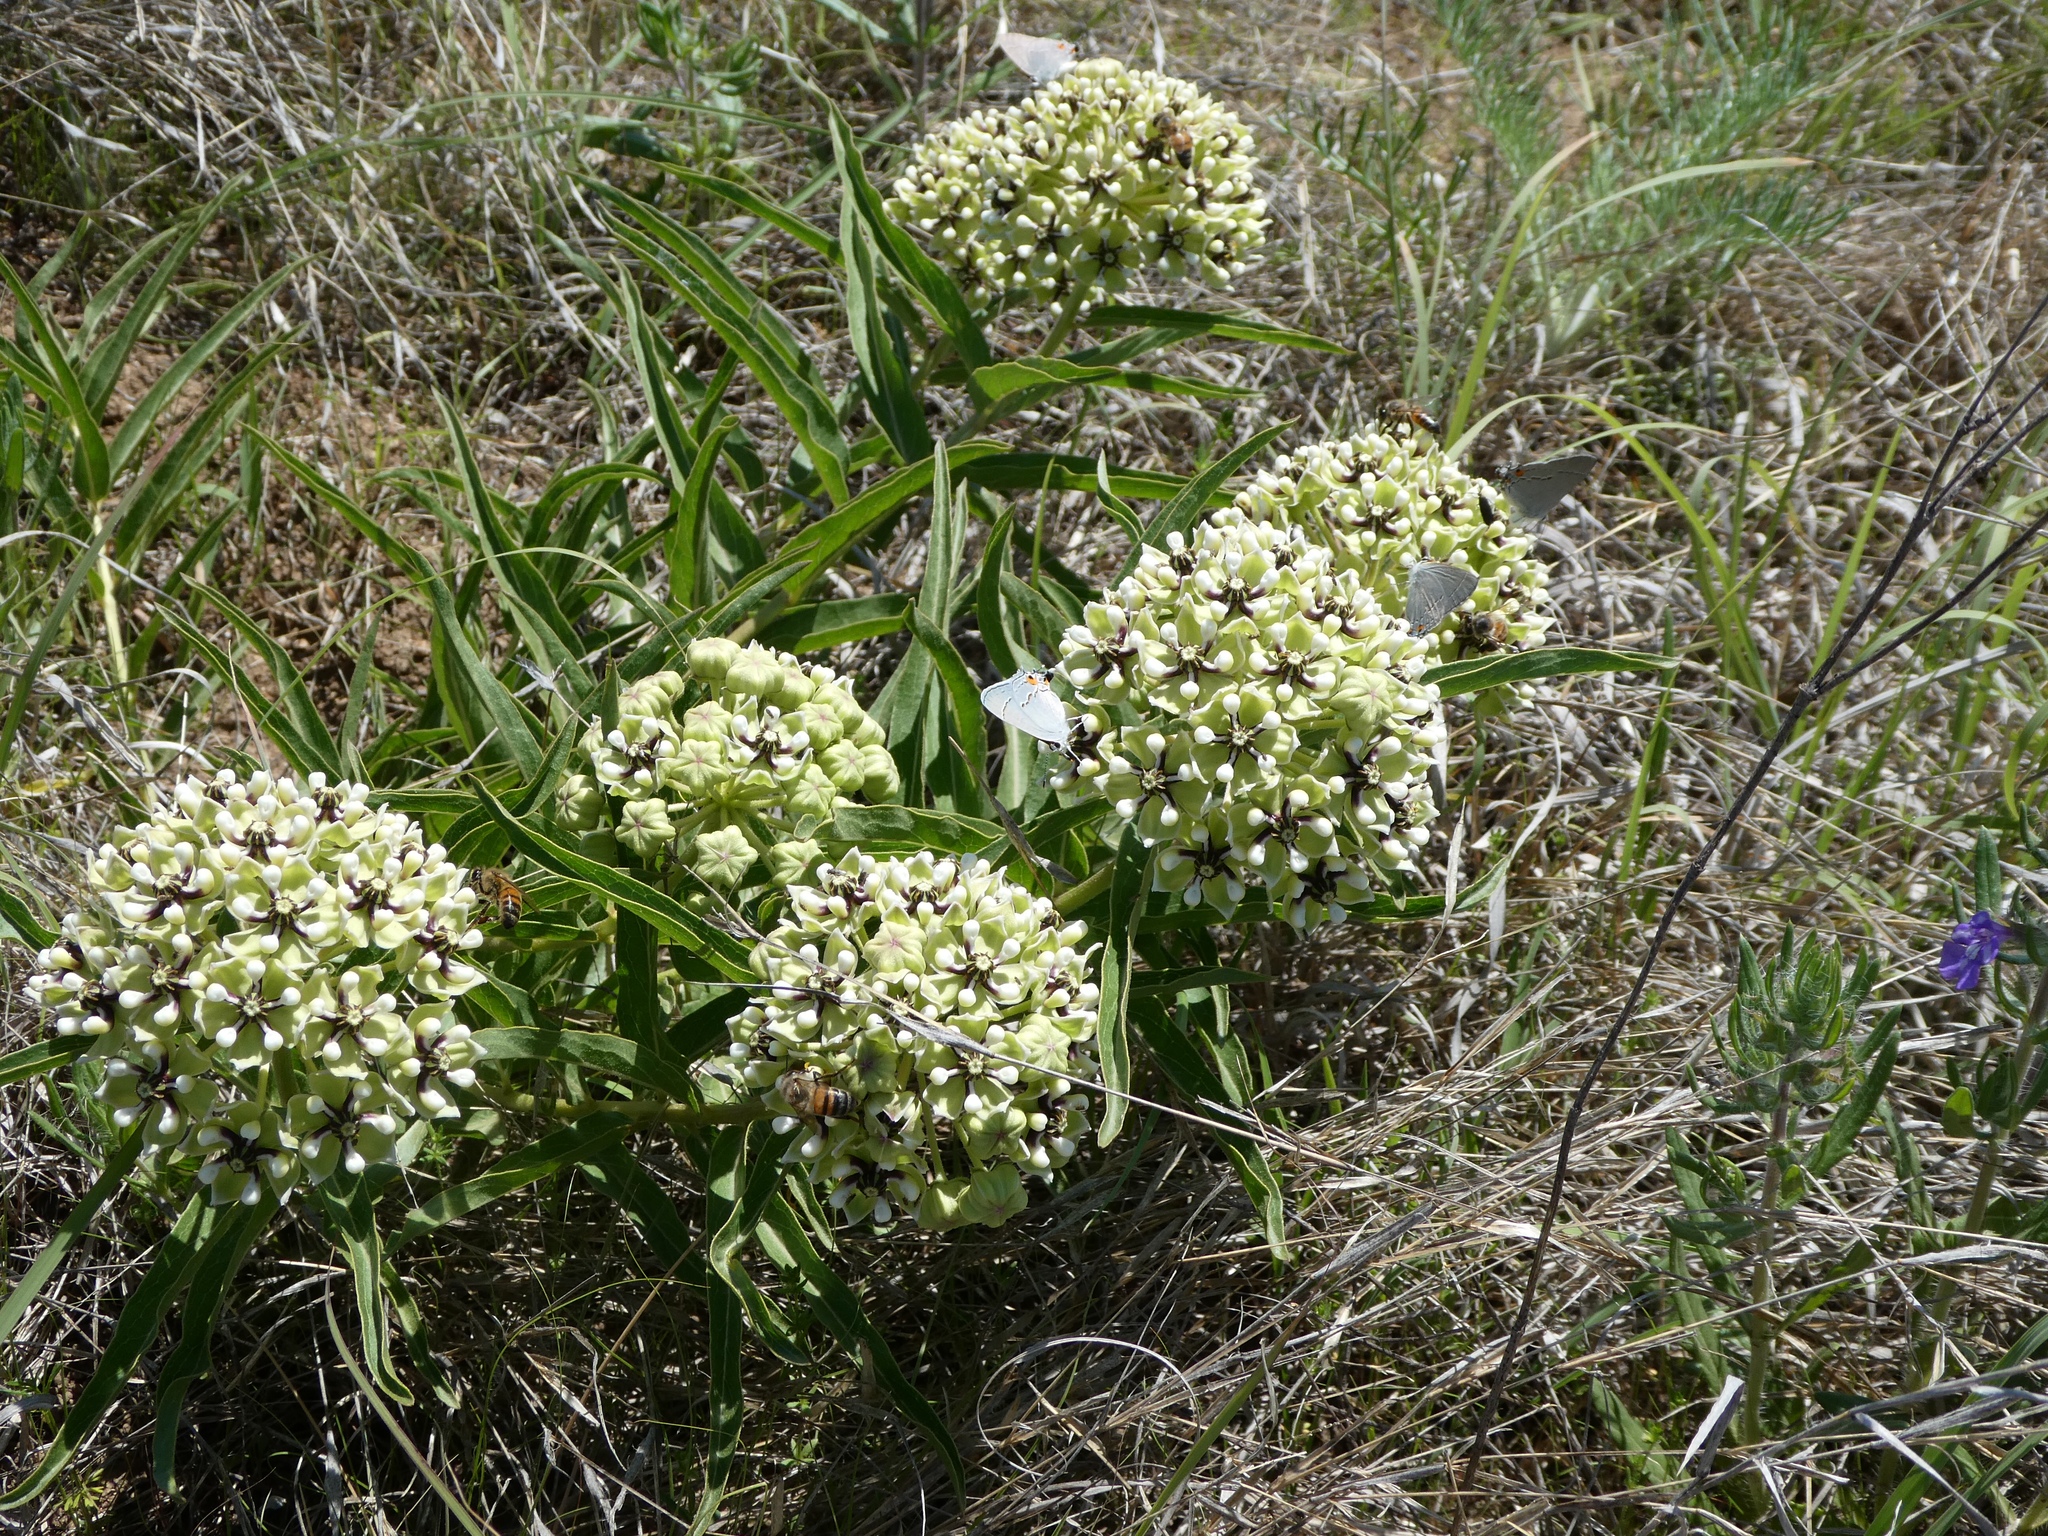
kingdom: Plantae
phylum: Tracheophyta
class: Magnoliopsida
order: Gentianales
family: Apocynaceae
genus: Asclepias
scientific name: Asclepias asperula
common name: Antelope horns
